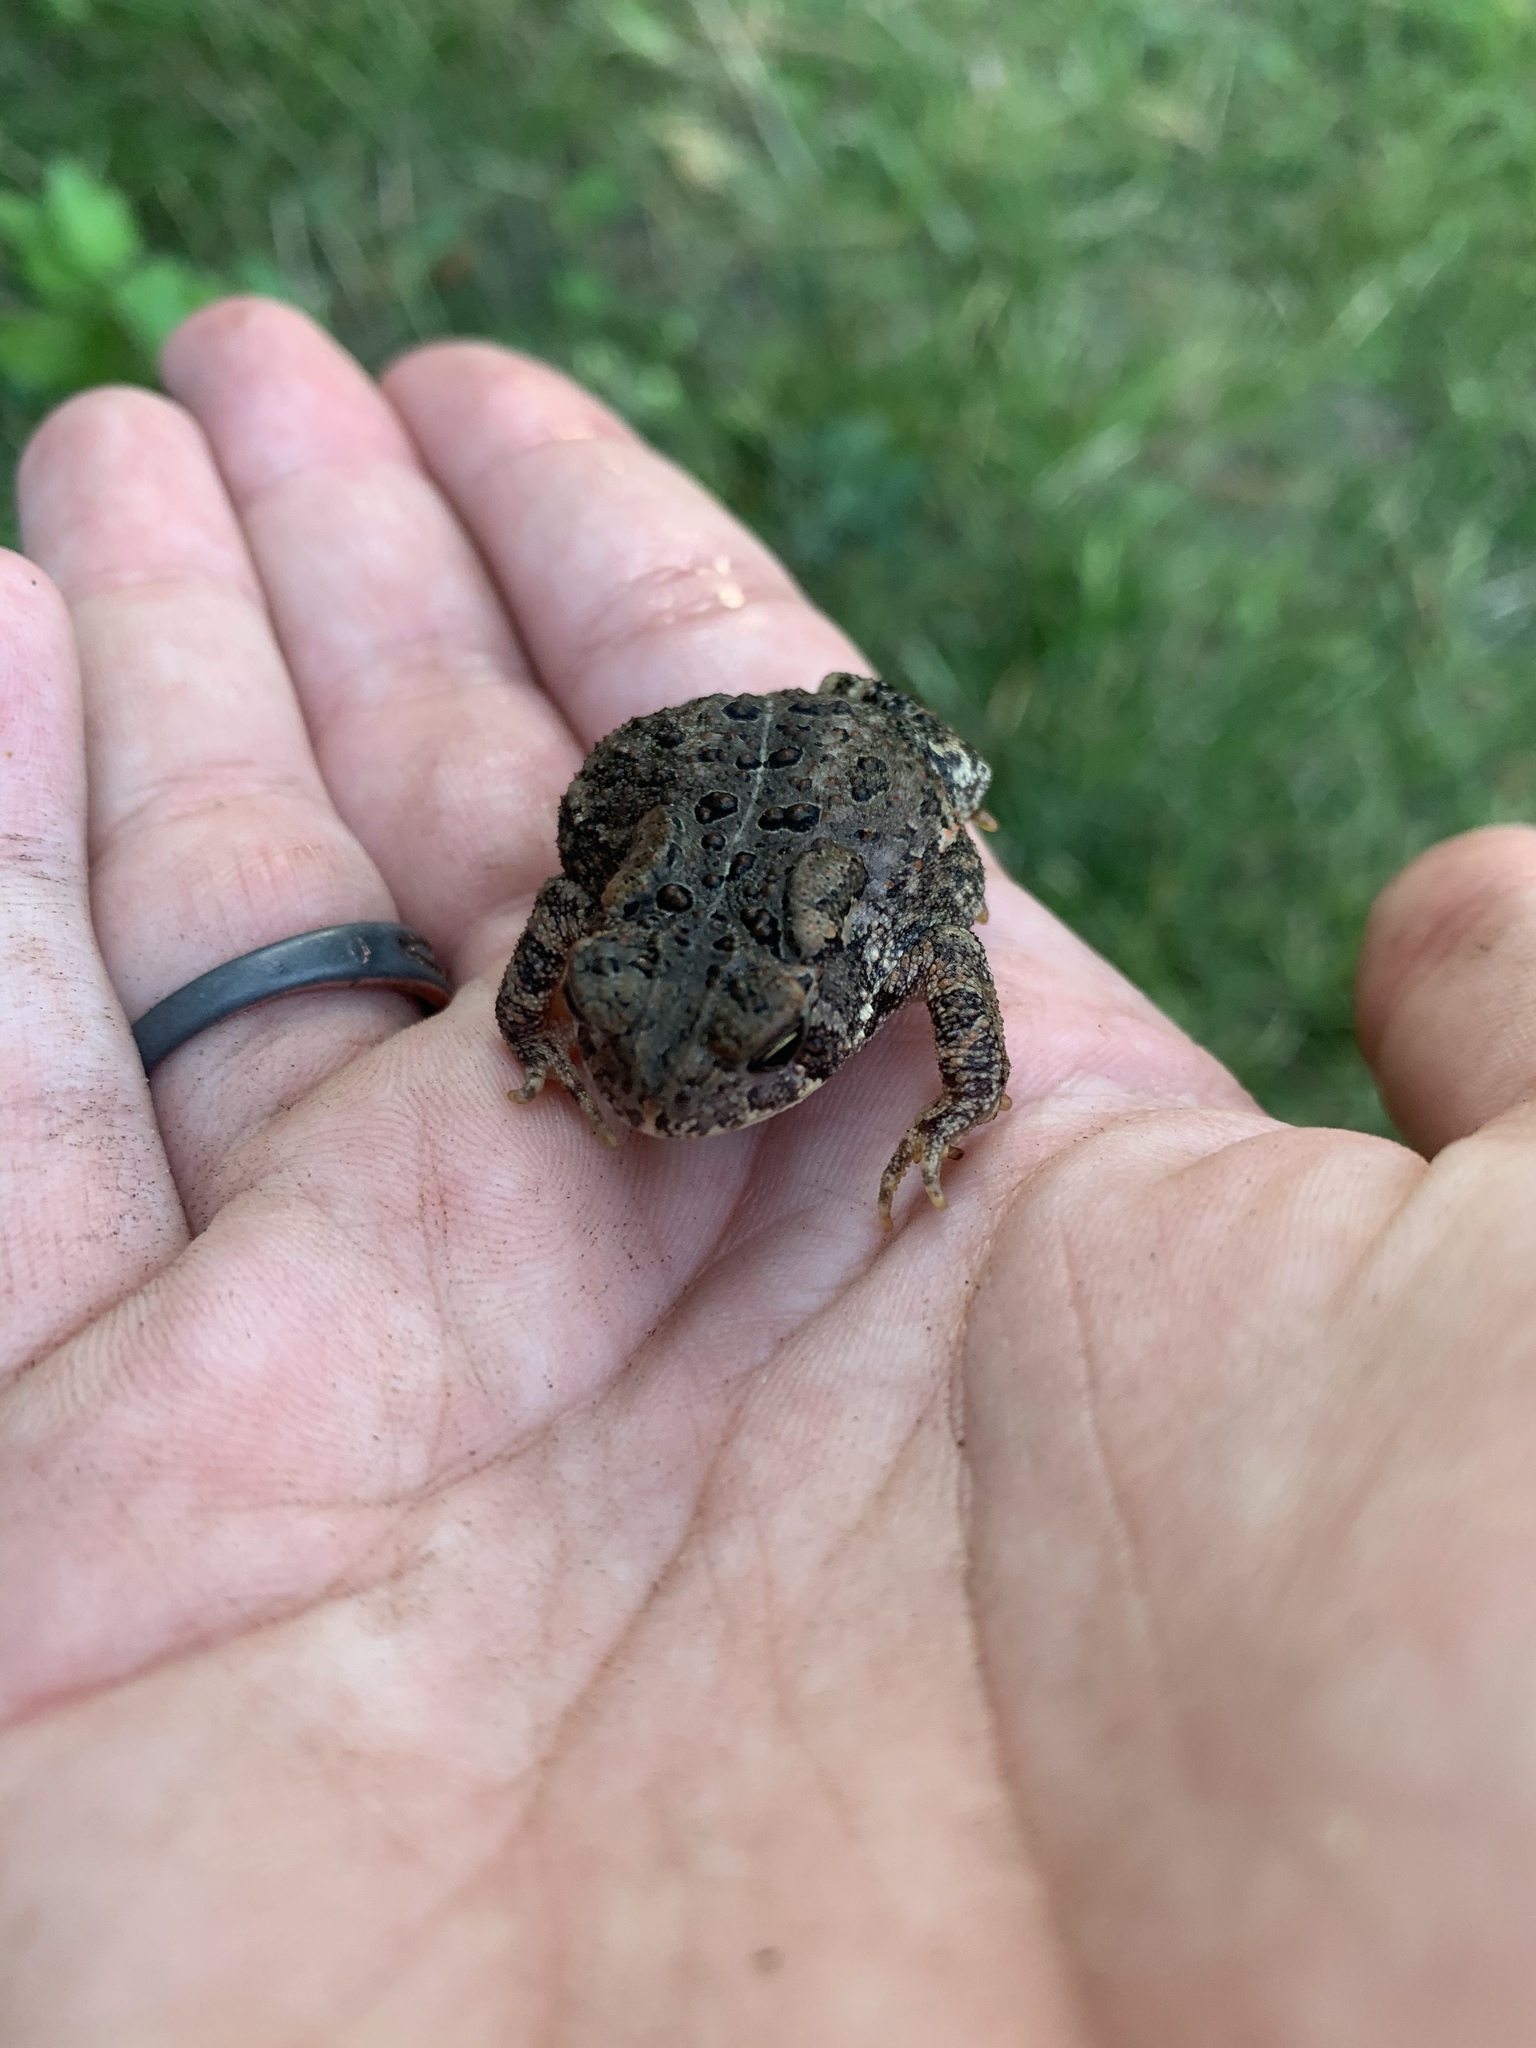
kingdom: Animalia
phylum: Chordata
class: Amphibia
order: Anura
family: Bufonidae
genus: Anaxyrus
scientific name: Anaxyrus americanus
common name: American toad
